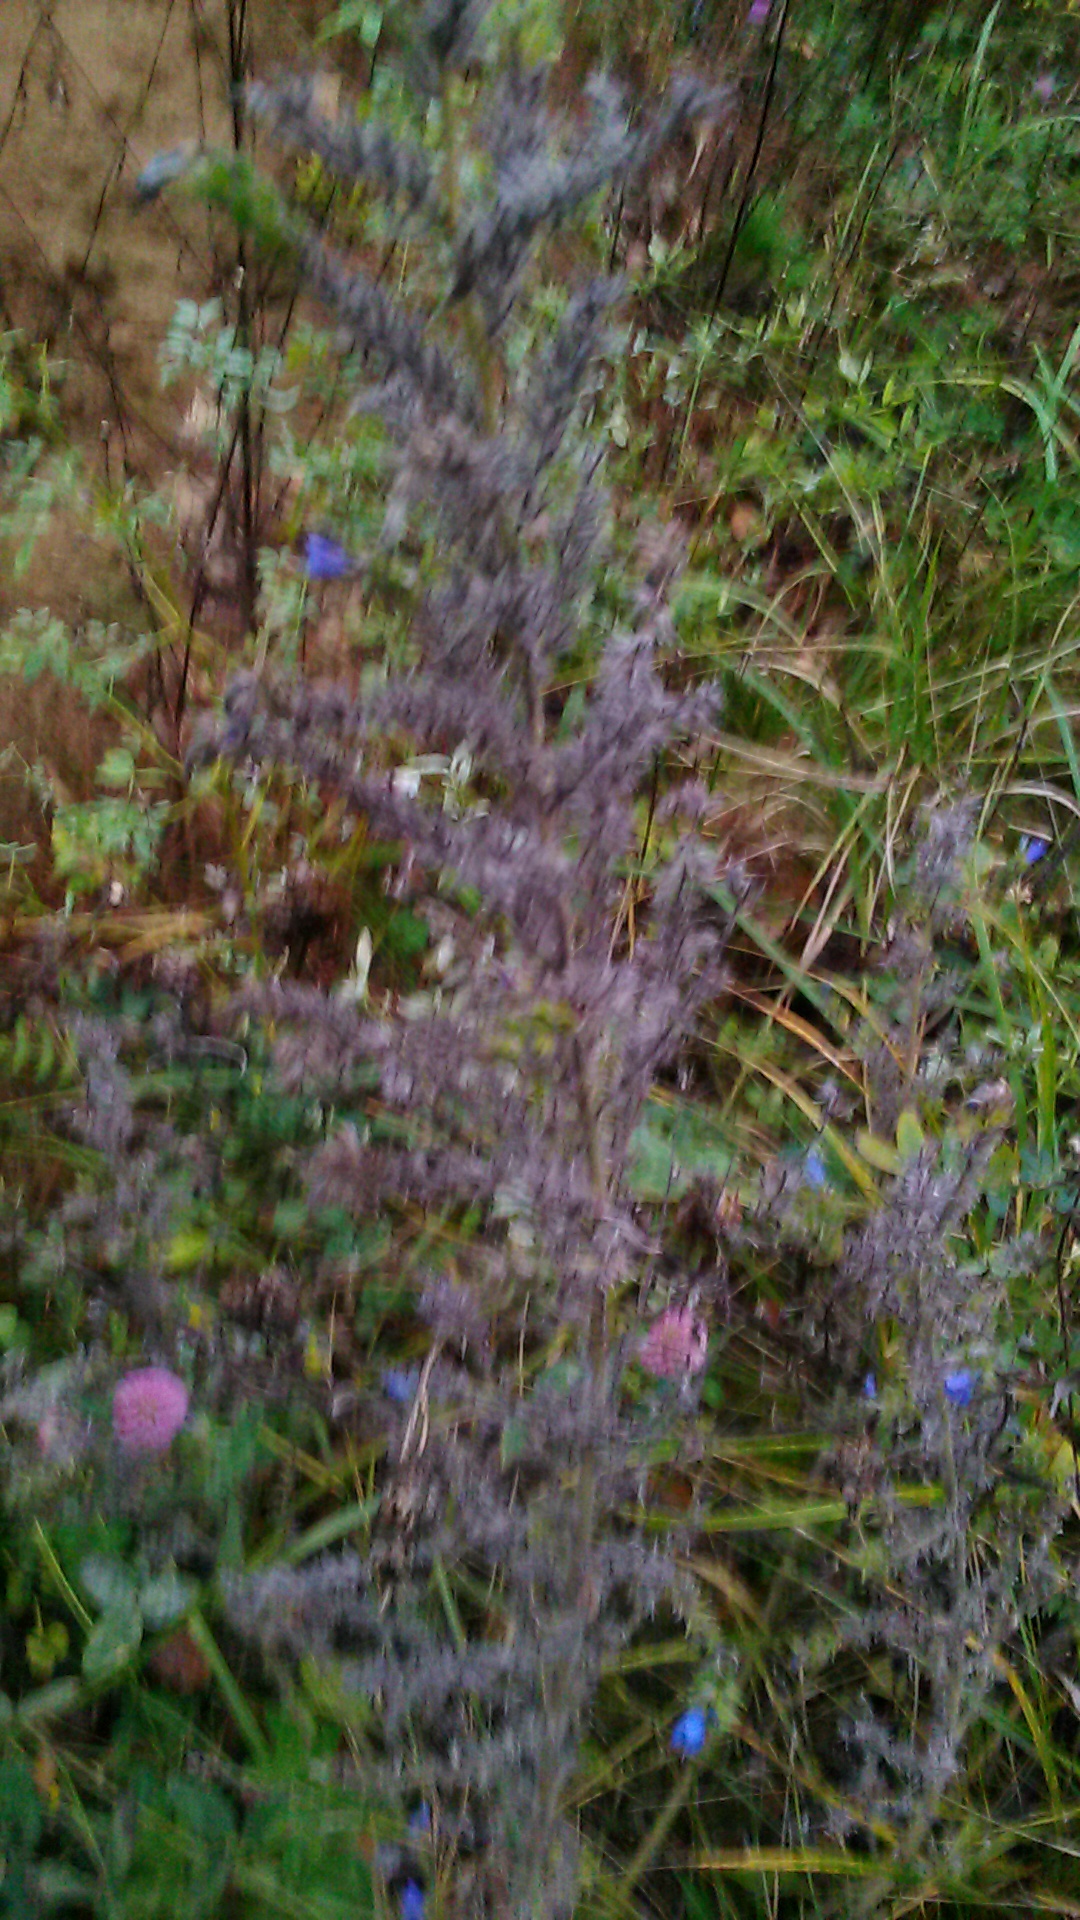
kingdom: Plantae
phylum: Tracheophyta
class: Magnoliopsida
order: Boraginales
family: Boraginaceae
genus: Echium
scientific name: Echium vulgare
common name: Common viper's bugloss
